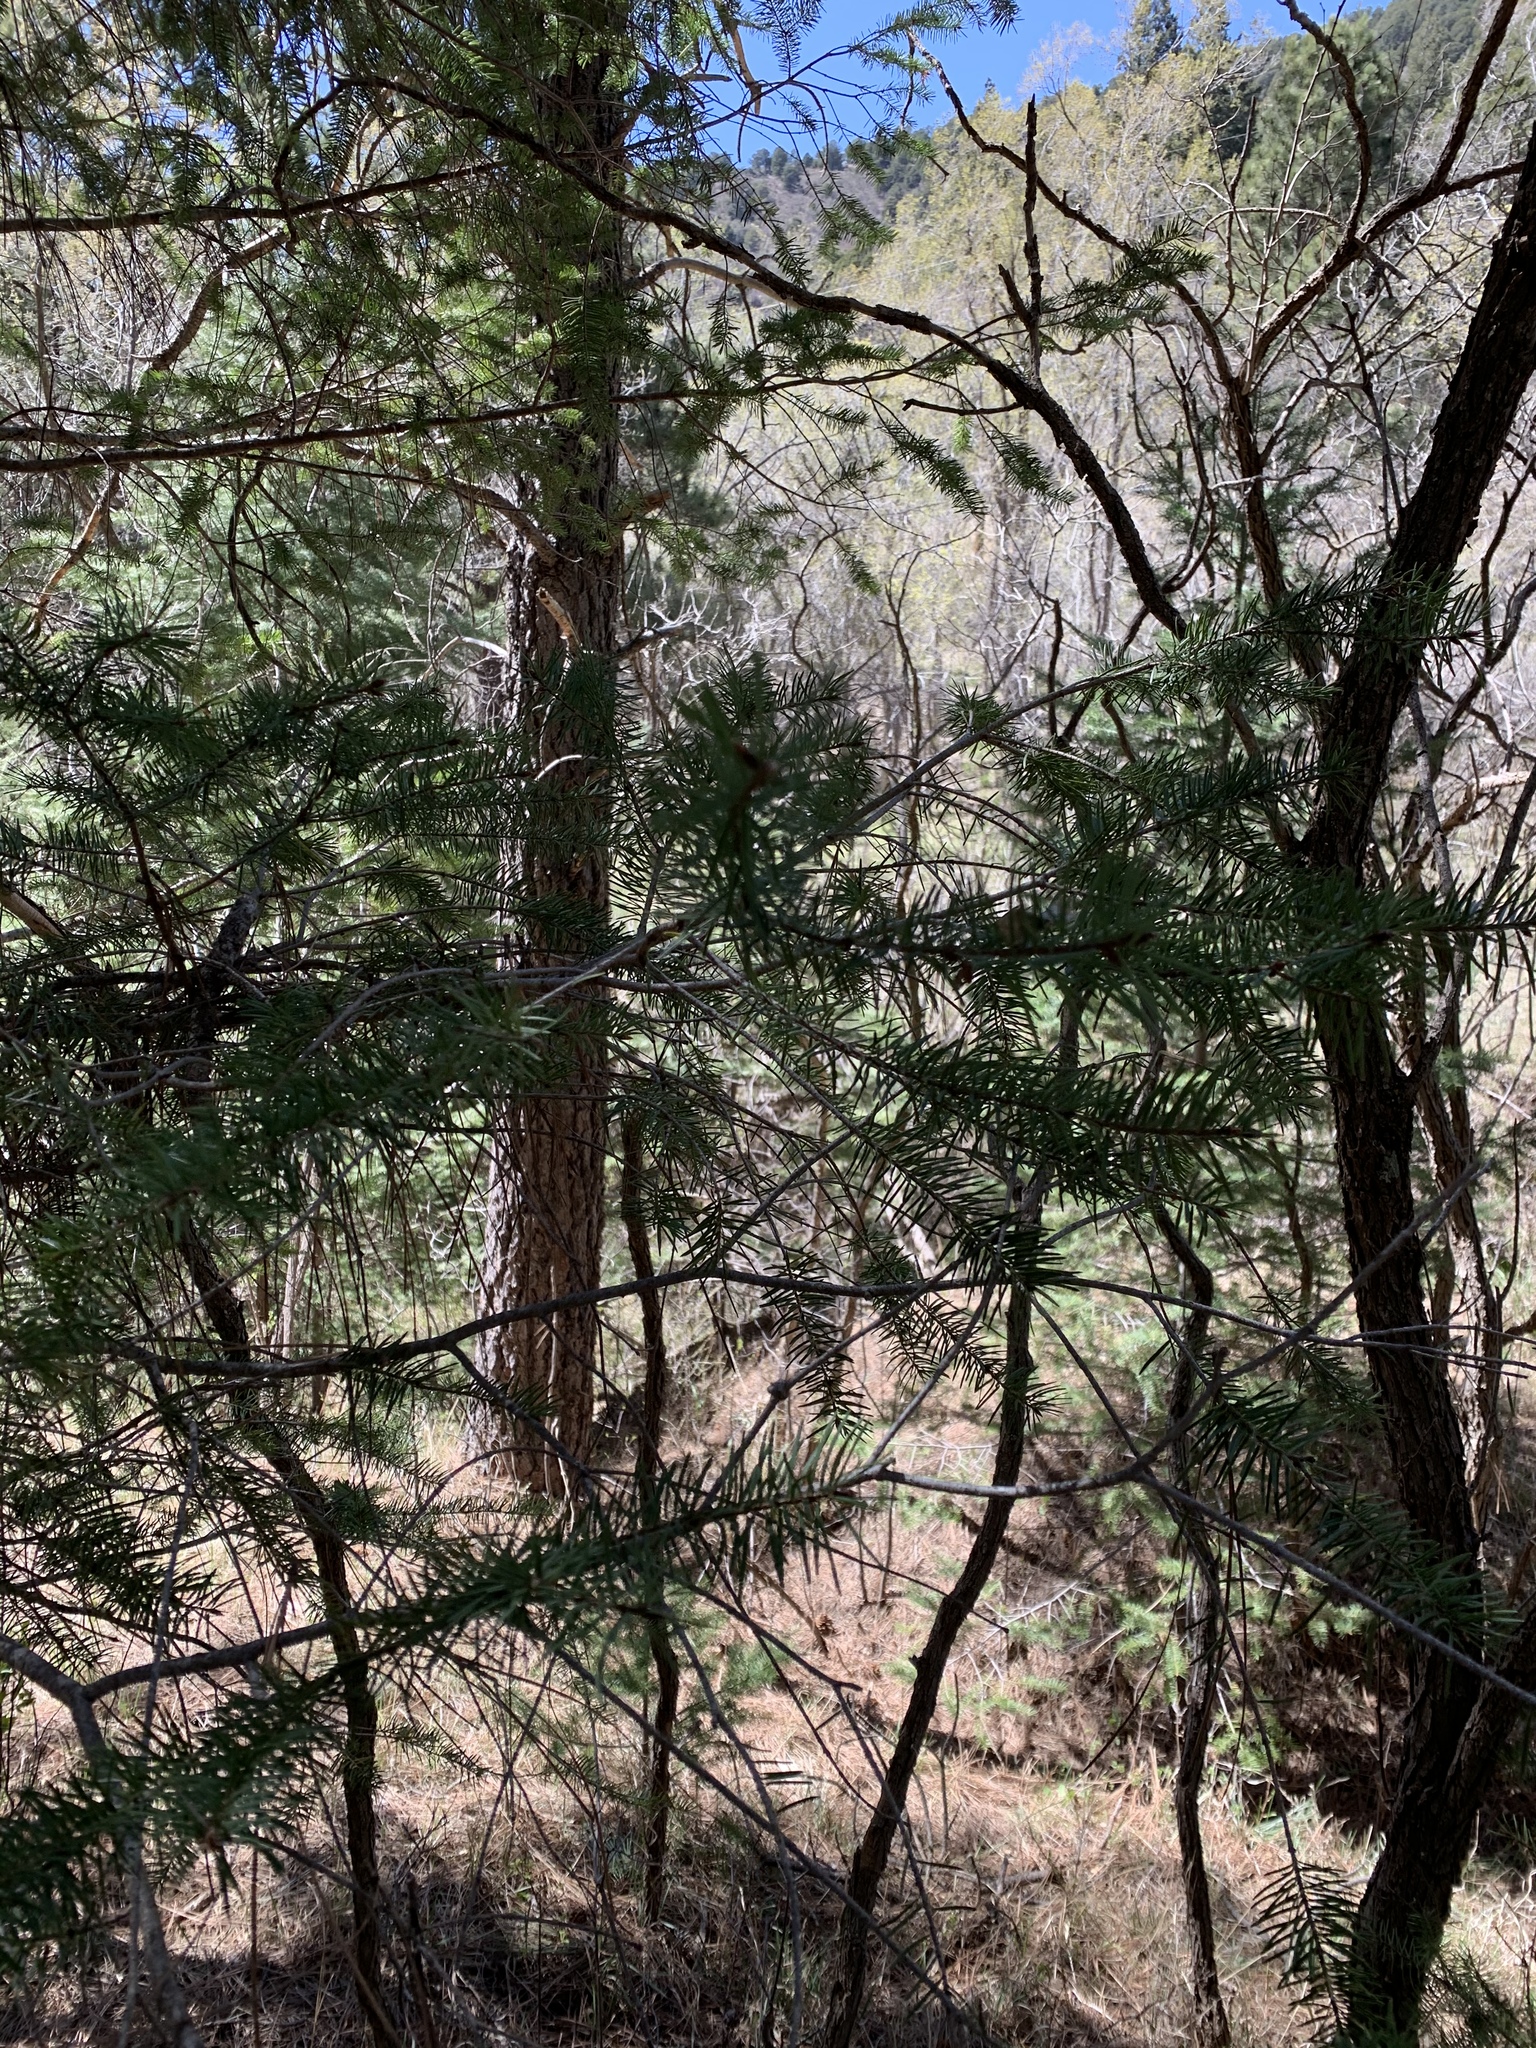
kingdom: Plantae
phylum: Tracheophyta
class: Pinopsida
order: Pinales
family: Pinaceae
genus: Pseudotsuga
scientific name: Pseudotsuga menziesii
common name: Douglas fir
